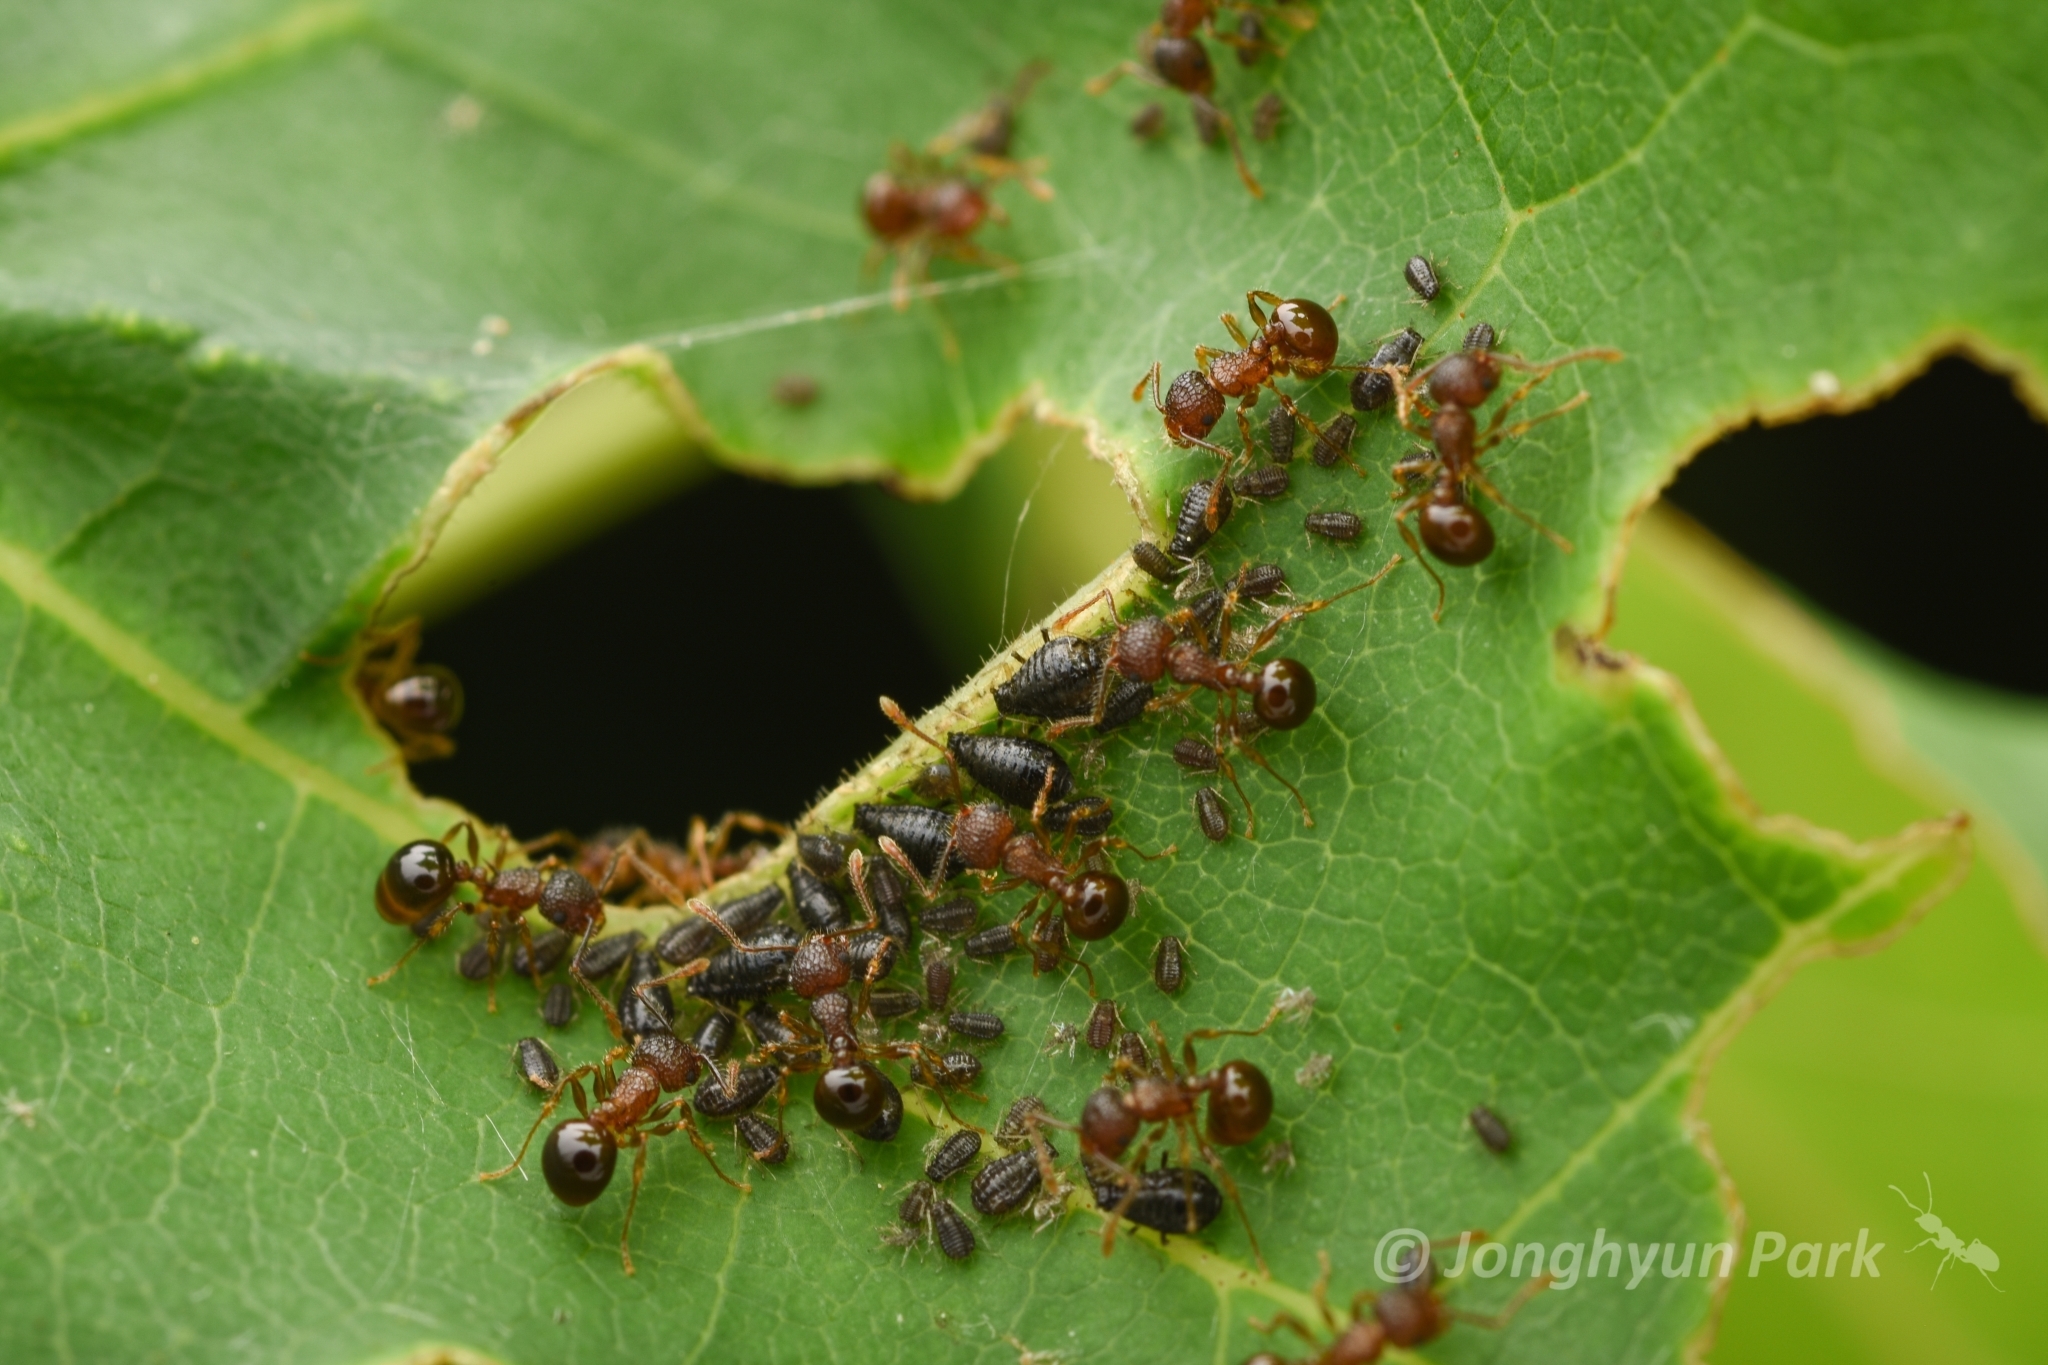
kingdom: Animalia
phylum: Arthropoda
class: Insecta
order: Hymenoptera
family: Formicidae
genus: Pristomyrmex
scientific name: Pristomyrmex punctatus
